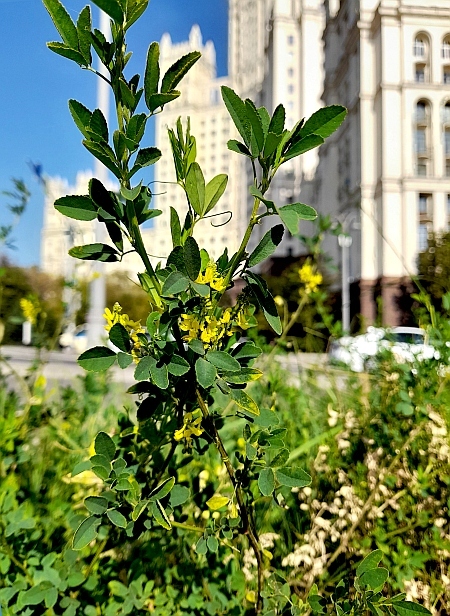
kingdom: Plantae
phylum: Tracheophyta
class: Magnoliopsida
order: Fabales
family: Fabaceae
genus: Melilotus
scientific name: Melilotus officinalis
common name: Sweetclover
